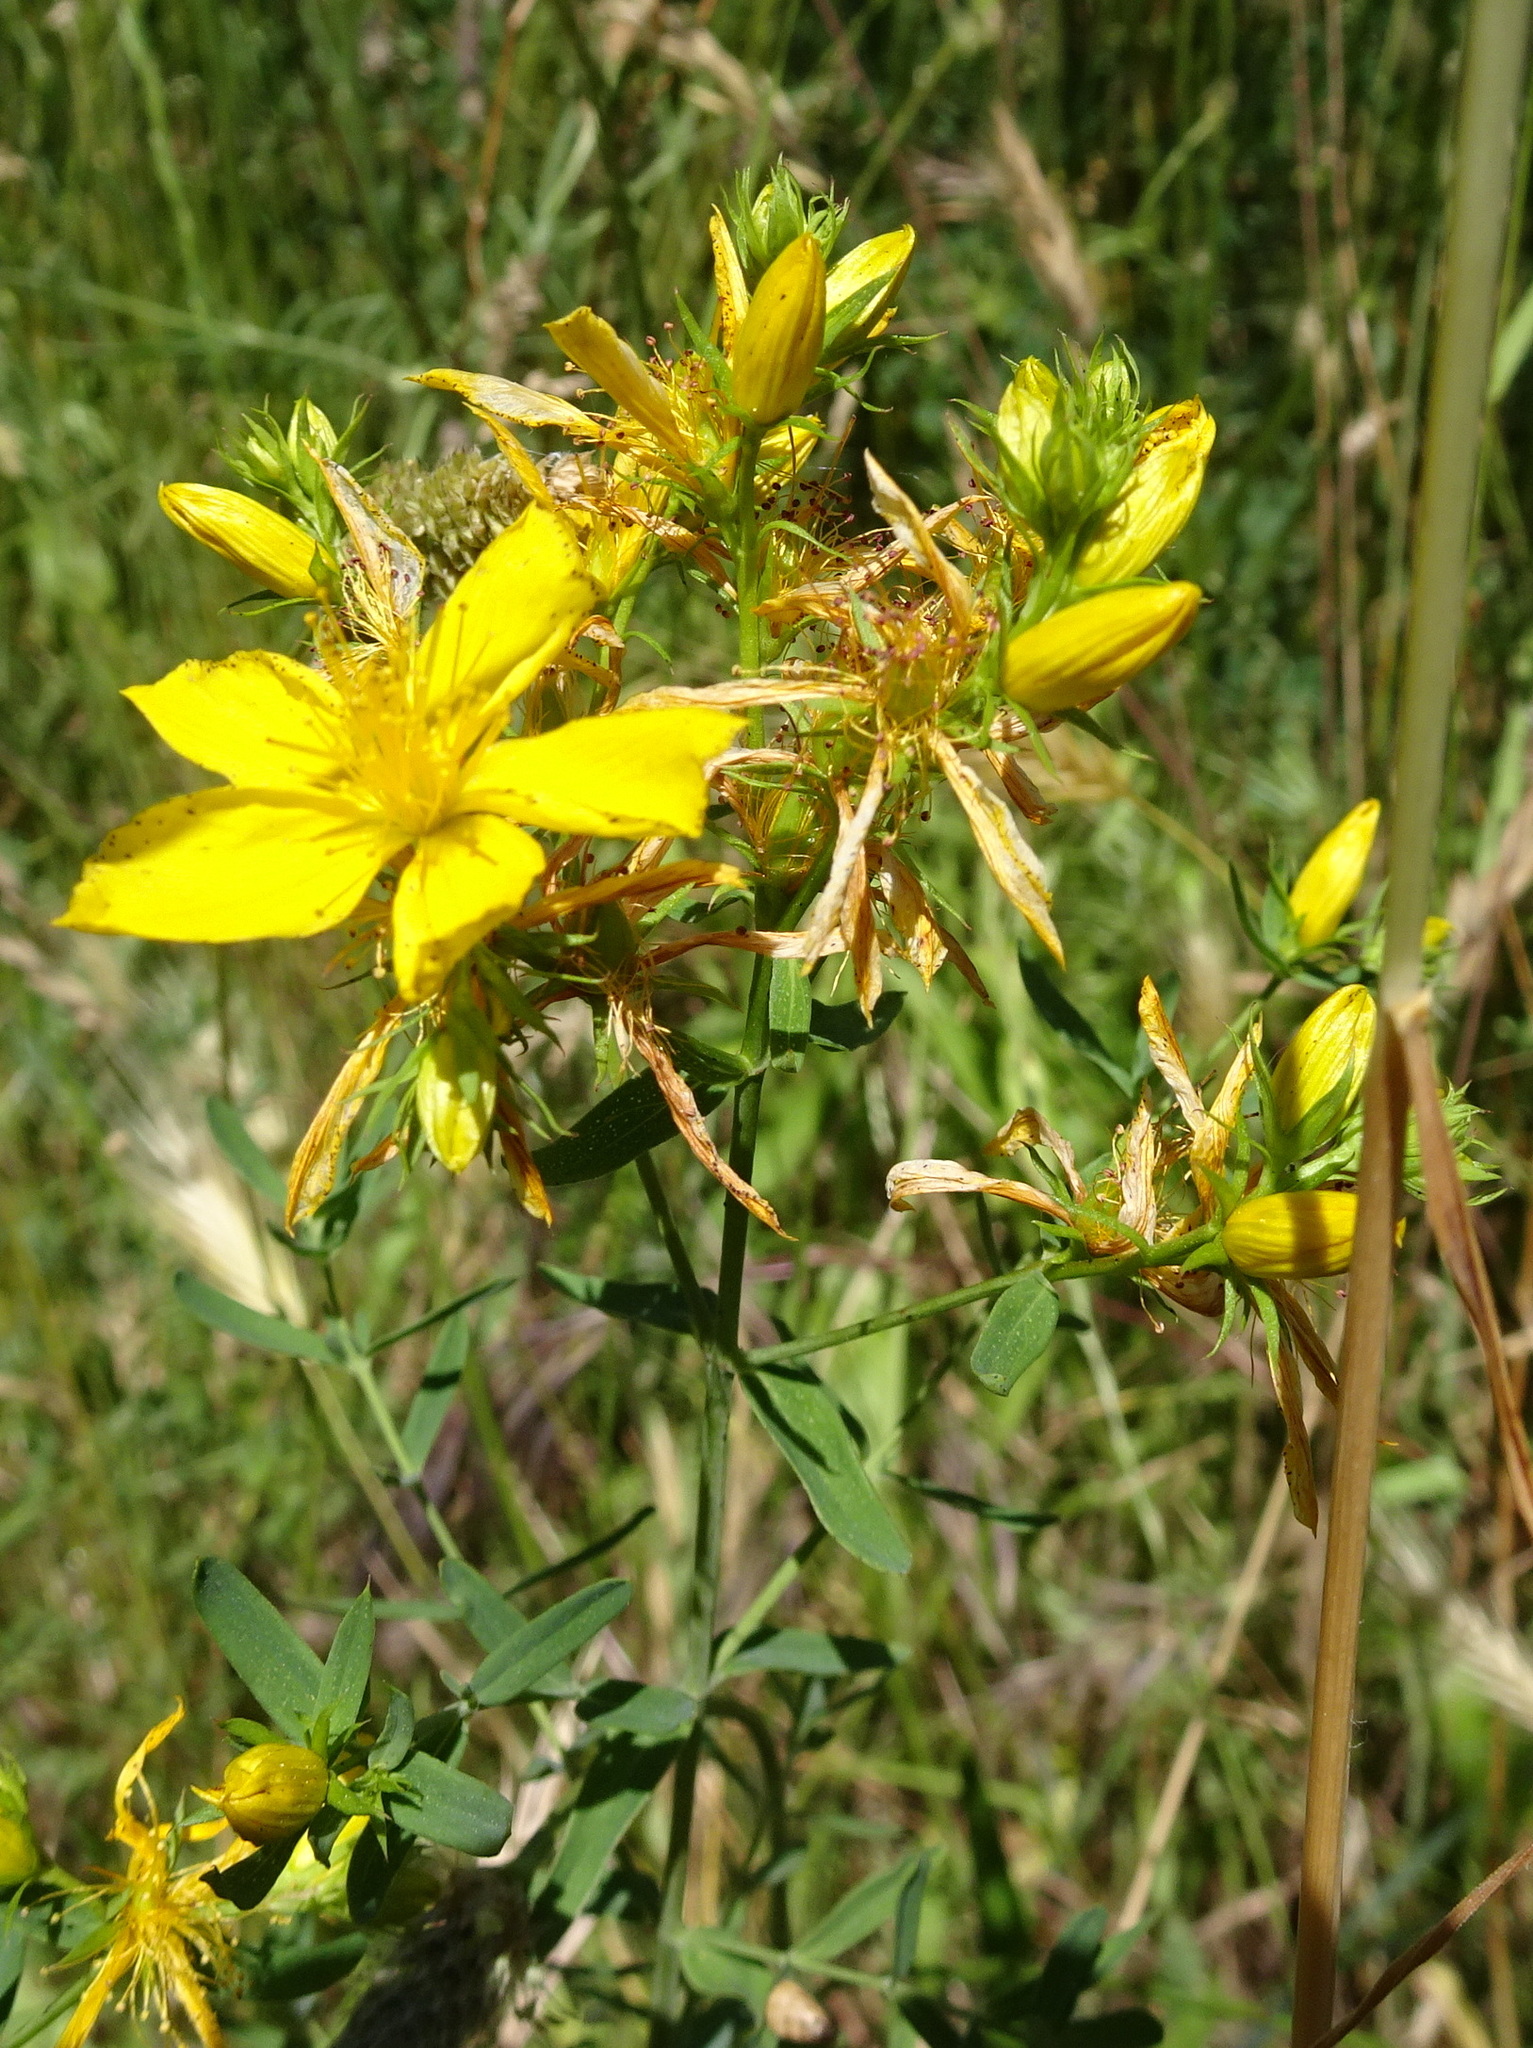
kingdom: Plantae
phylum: Tracheophyta
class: Magnoliopsida
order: Malpighiales
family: Hypericaceae
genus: Hypericum
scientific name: Hypericum perforatum
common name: Common st. johnswort
